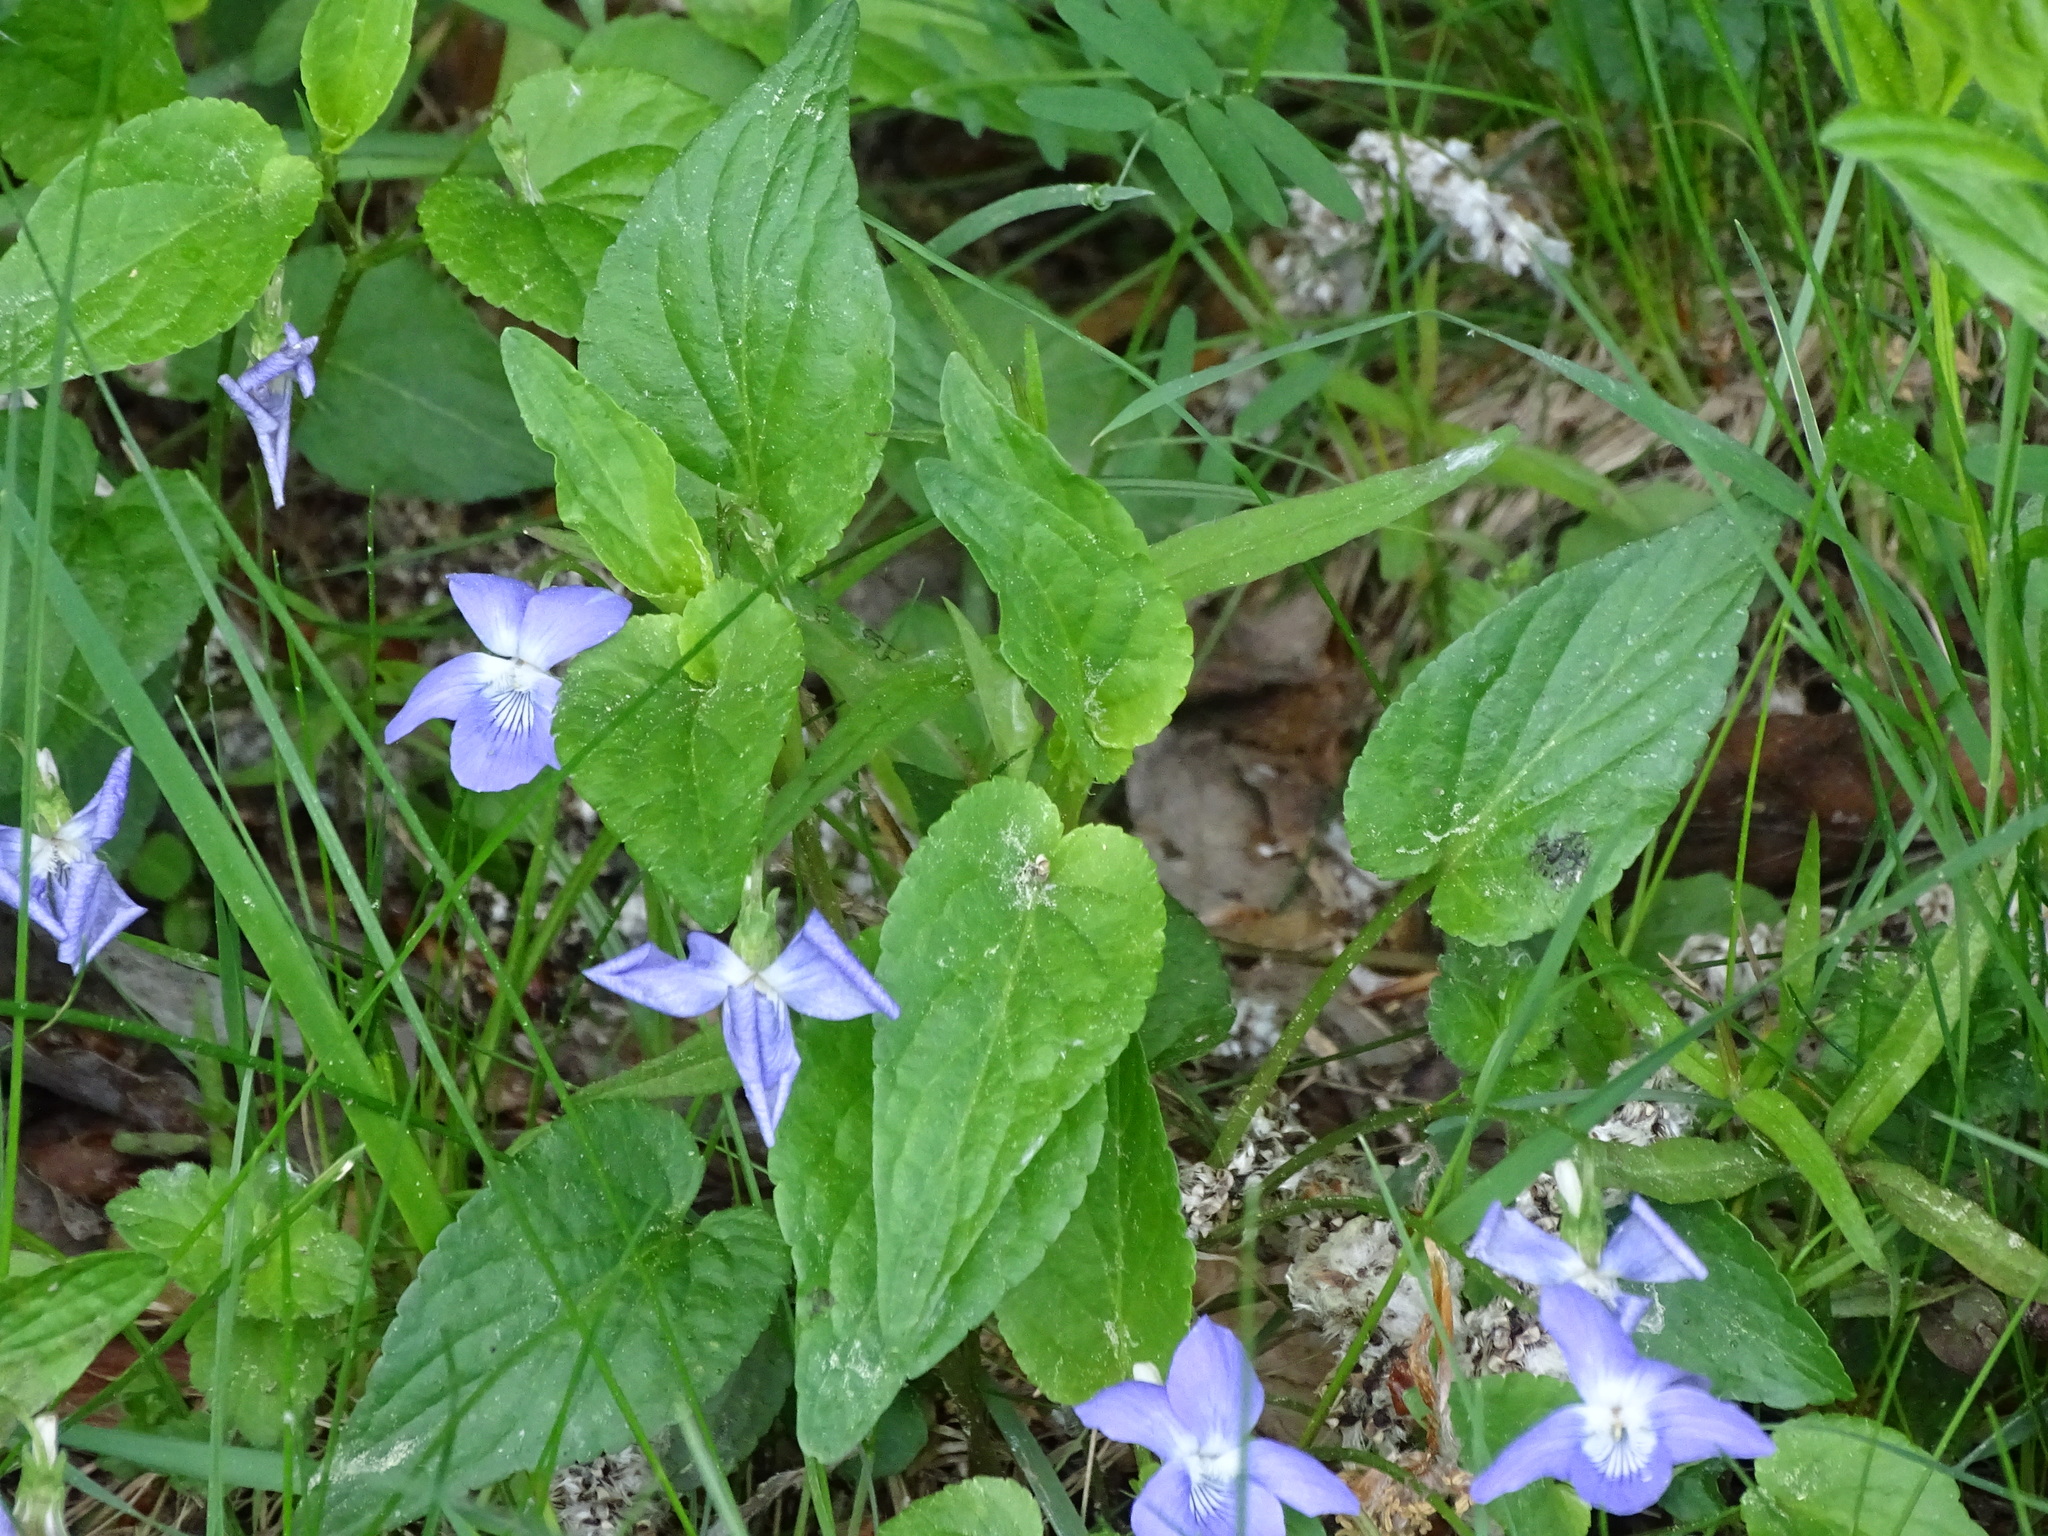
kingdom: Plantae
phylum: Tracheophyta
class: Magnoliopsida
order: Malpighiales
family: Violaceae
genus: Viola
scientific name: Viola canina
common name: Heath dog-violet
